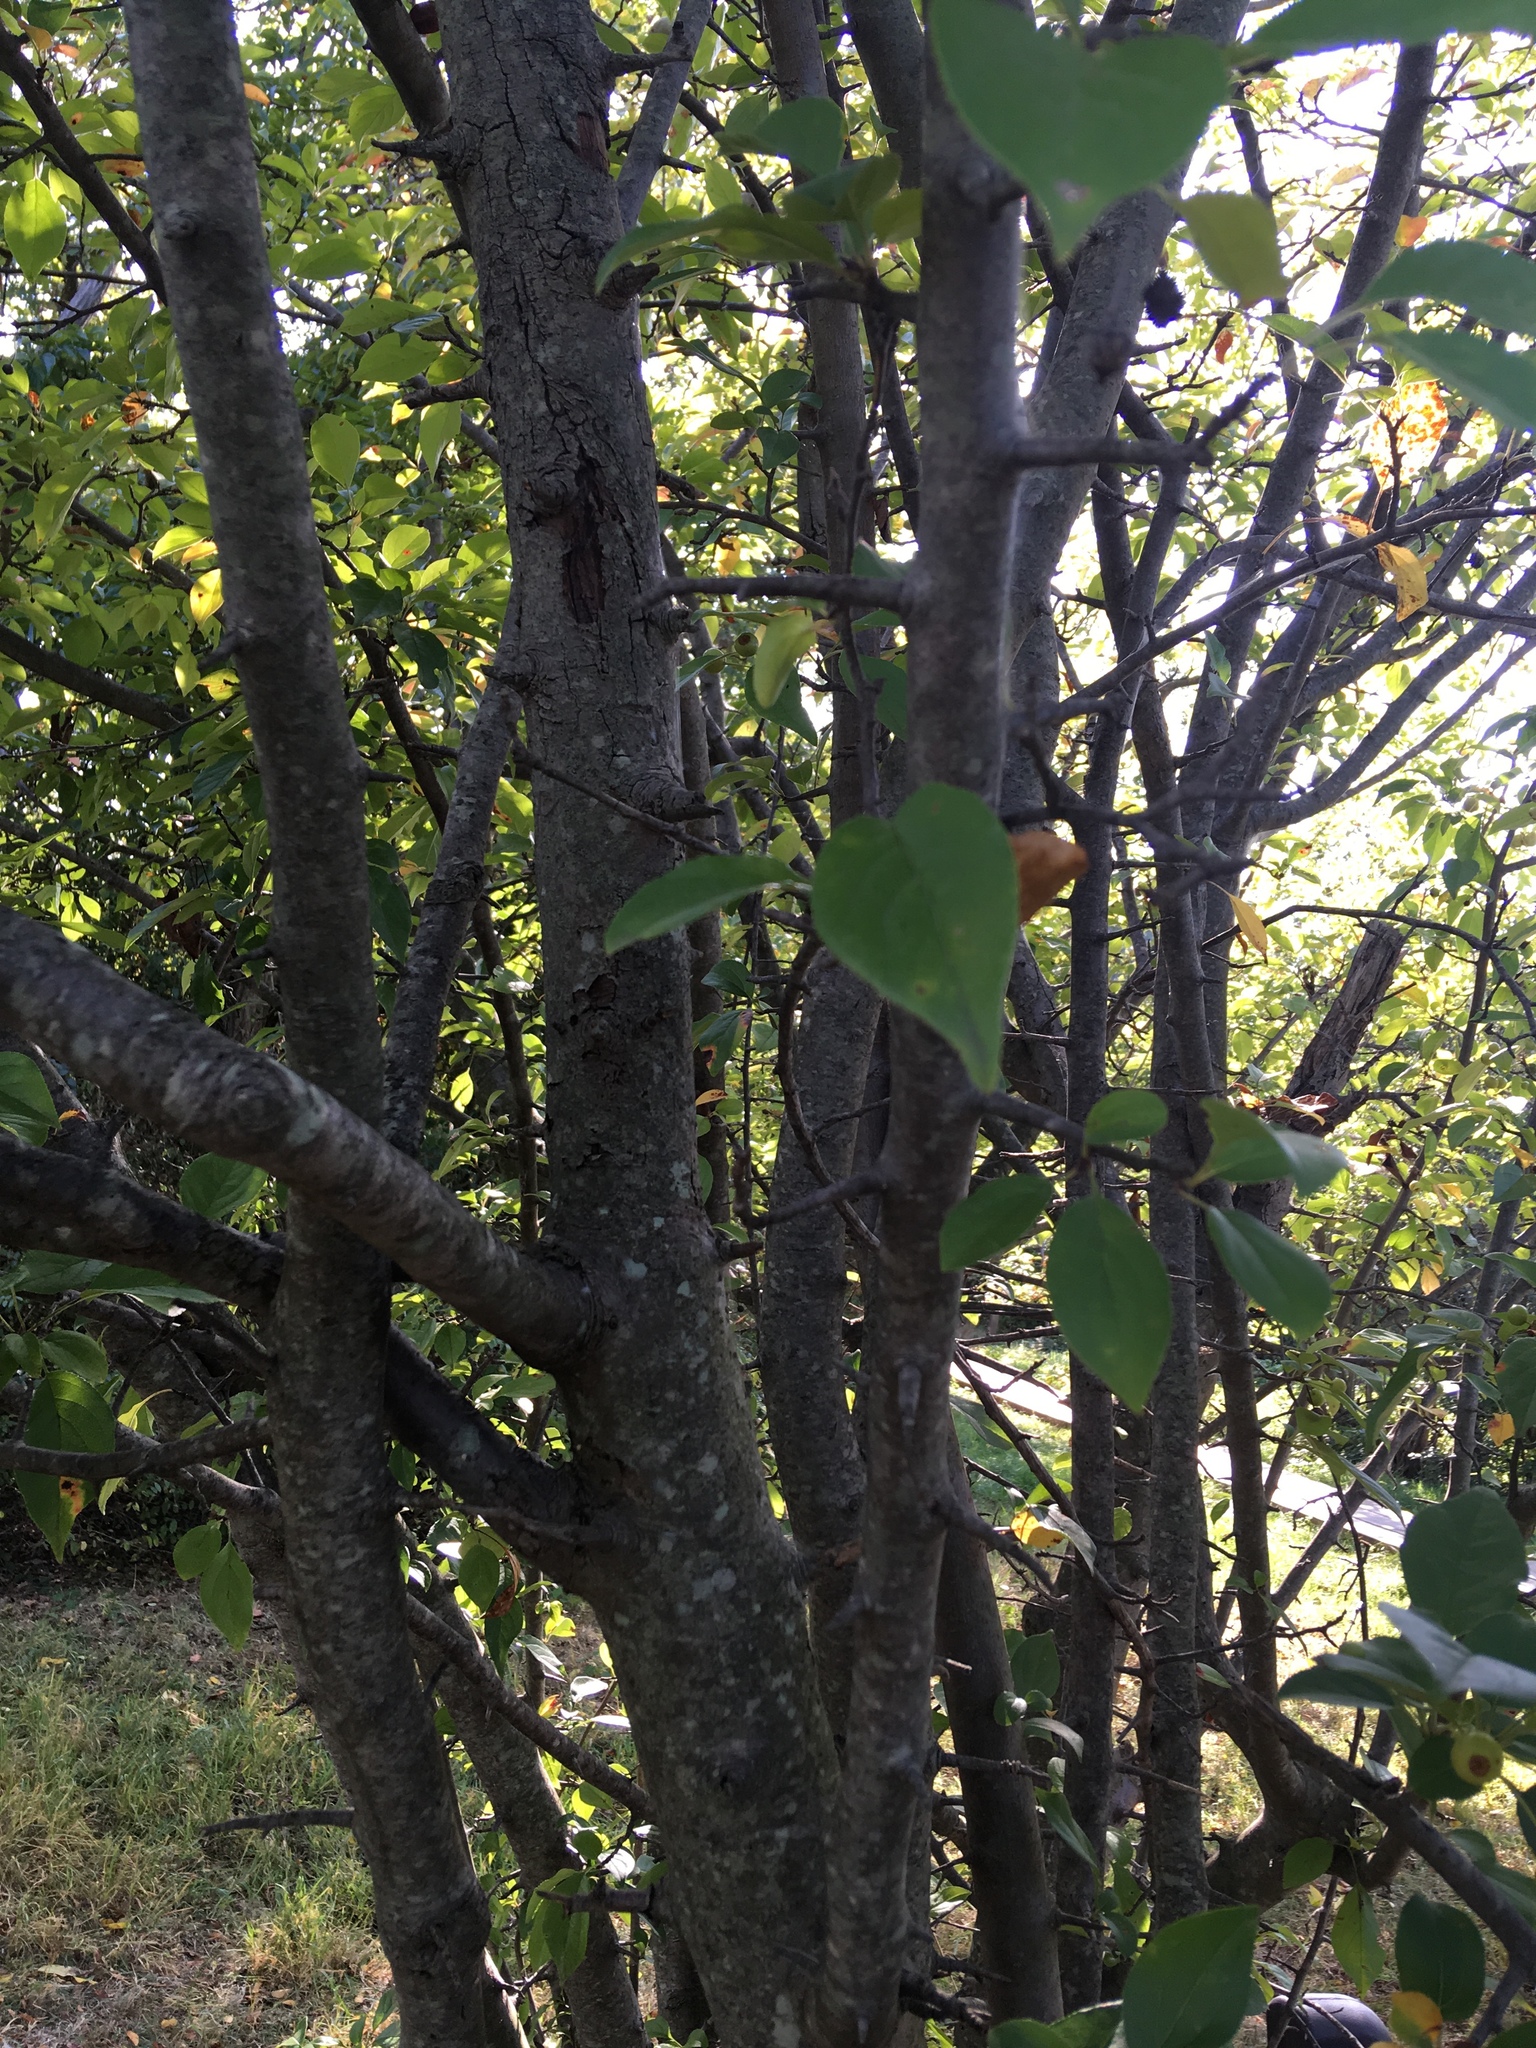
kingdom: Plantae
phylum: Tracheophyta
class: Magnoliopsida
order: Rosales
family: Rosaceae
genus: Malus
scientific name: Malus hupehensis
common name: Chinese crab apple
